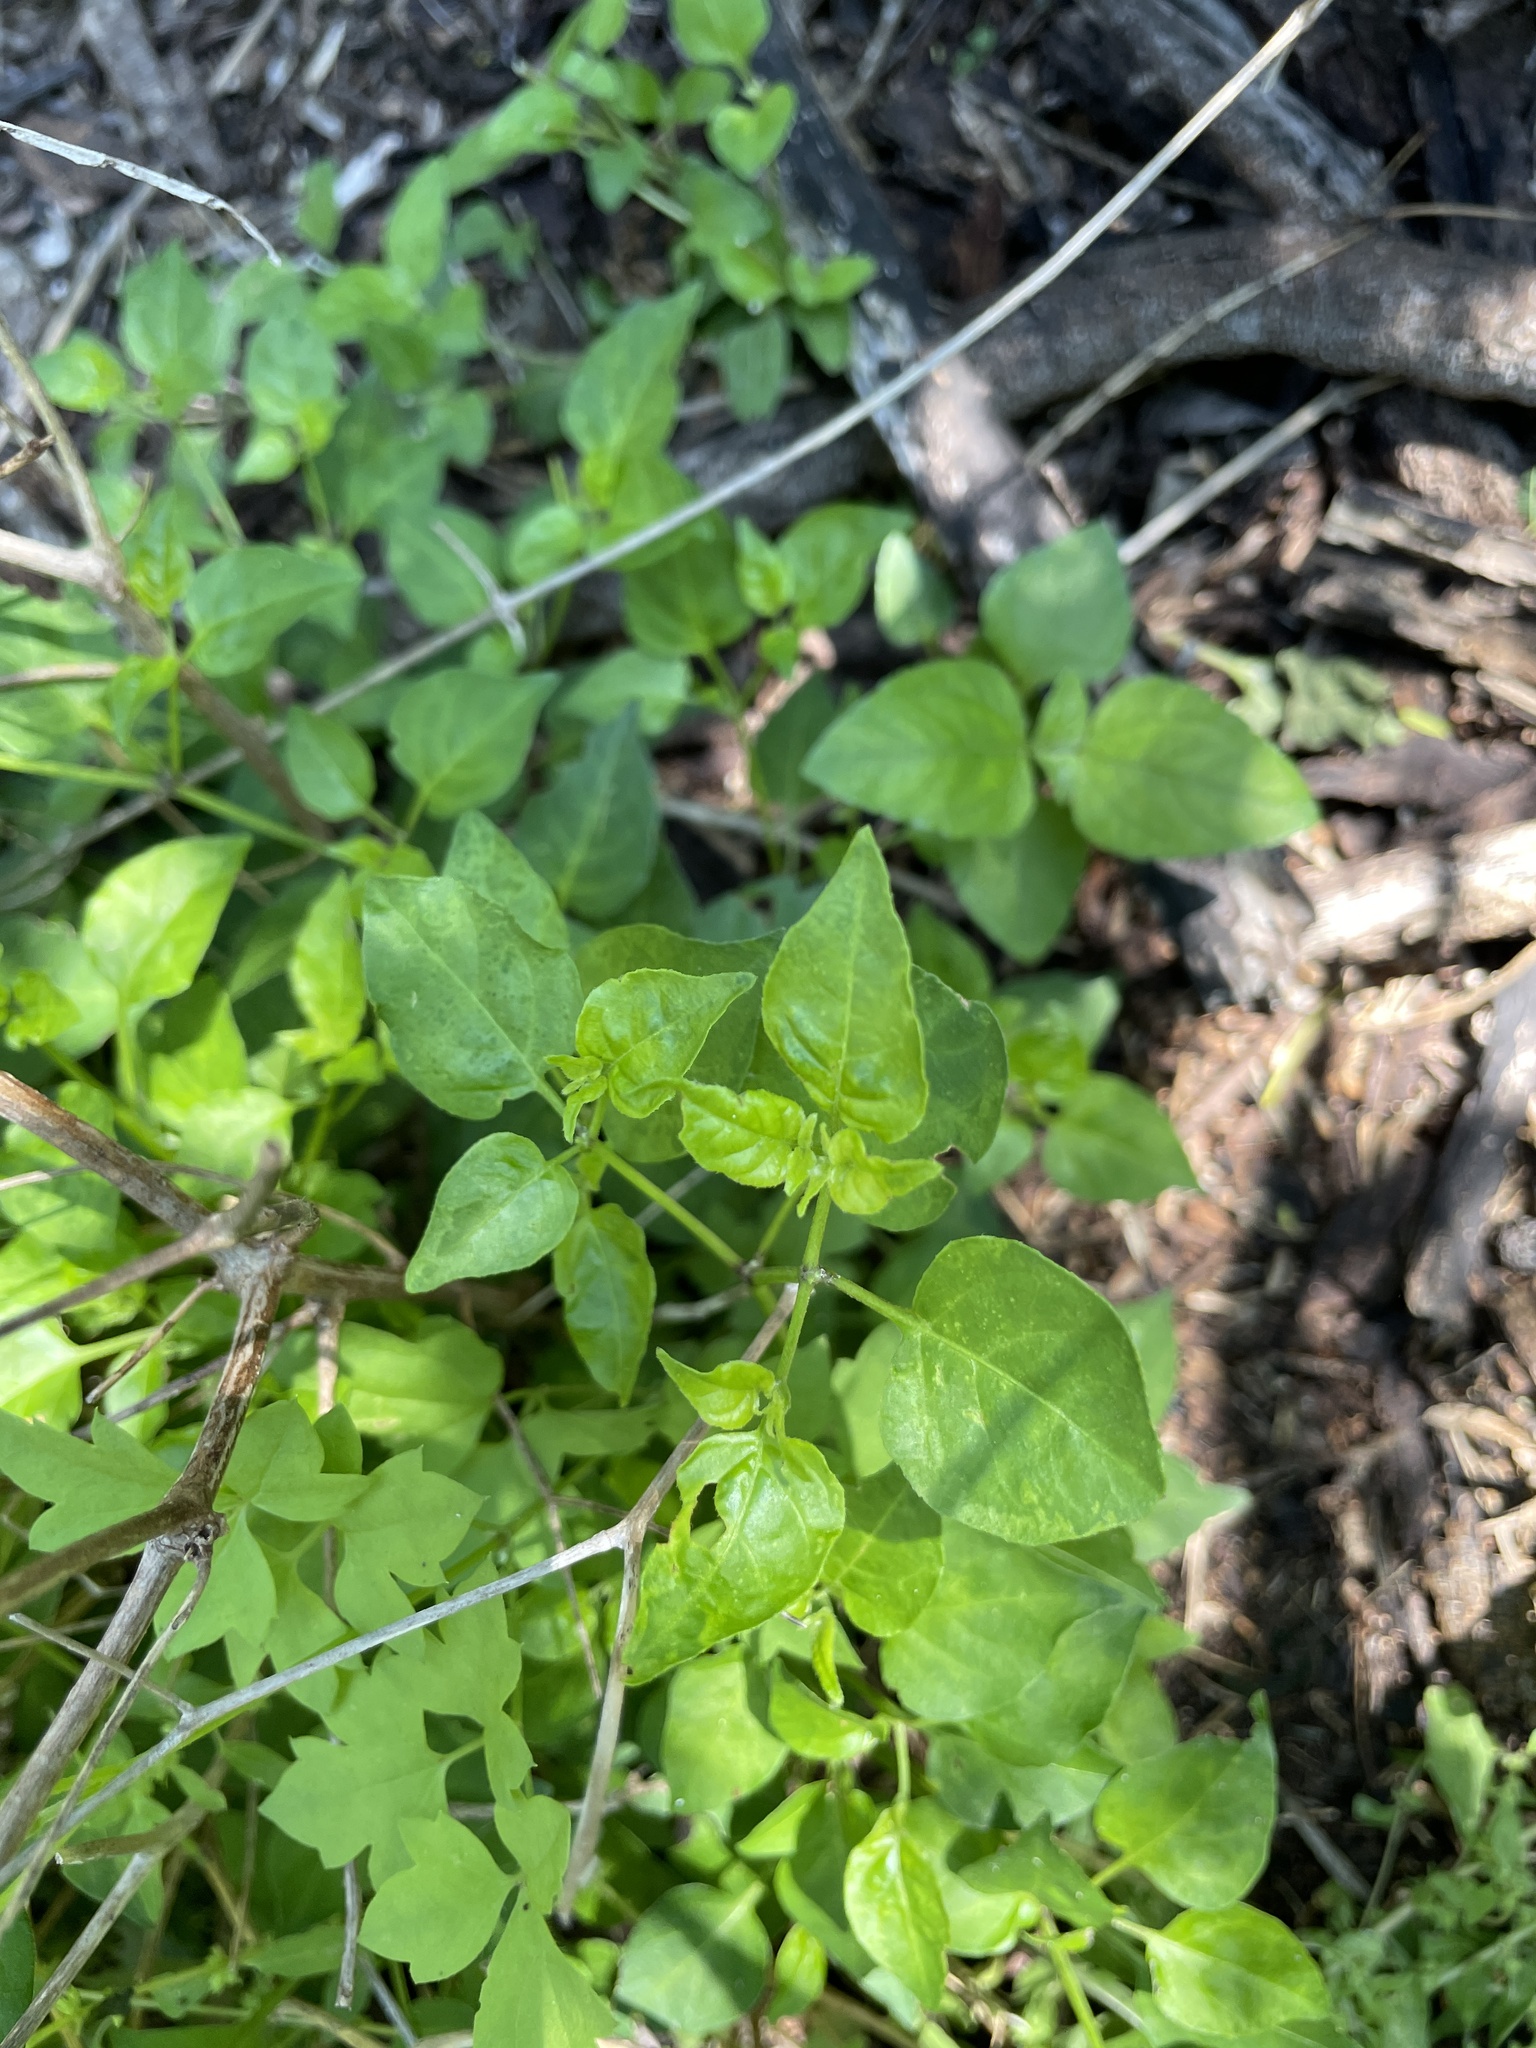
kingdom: Plantae
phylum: Tracheophyta
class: Magnoliopsida
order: Solanales
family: Solanaceae
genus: Capsicum
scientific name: Capsicum annuum
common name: Sweet pepper
